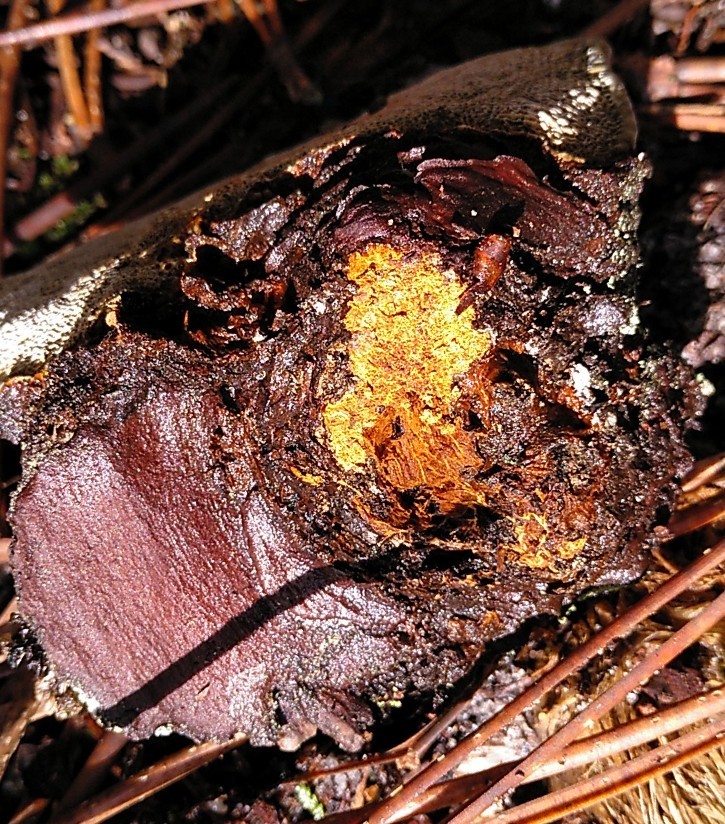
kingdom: Fungi
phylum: Basidiomycota
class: Agaricomycetes
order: Hymenochaetales
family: Hymenochaetaceae
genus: Porodaedalea
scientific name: Porodaedalea pini
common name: Pine bracket
